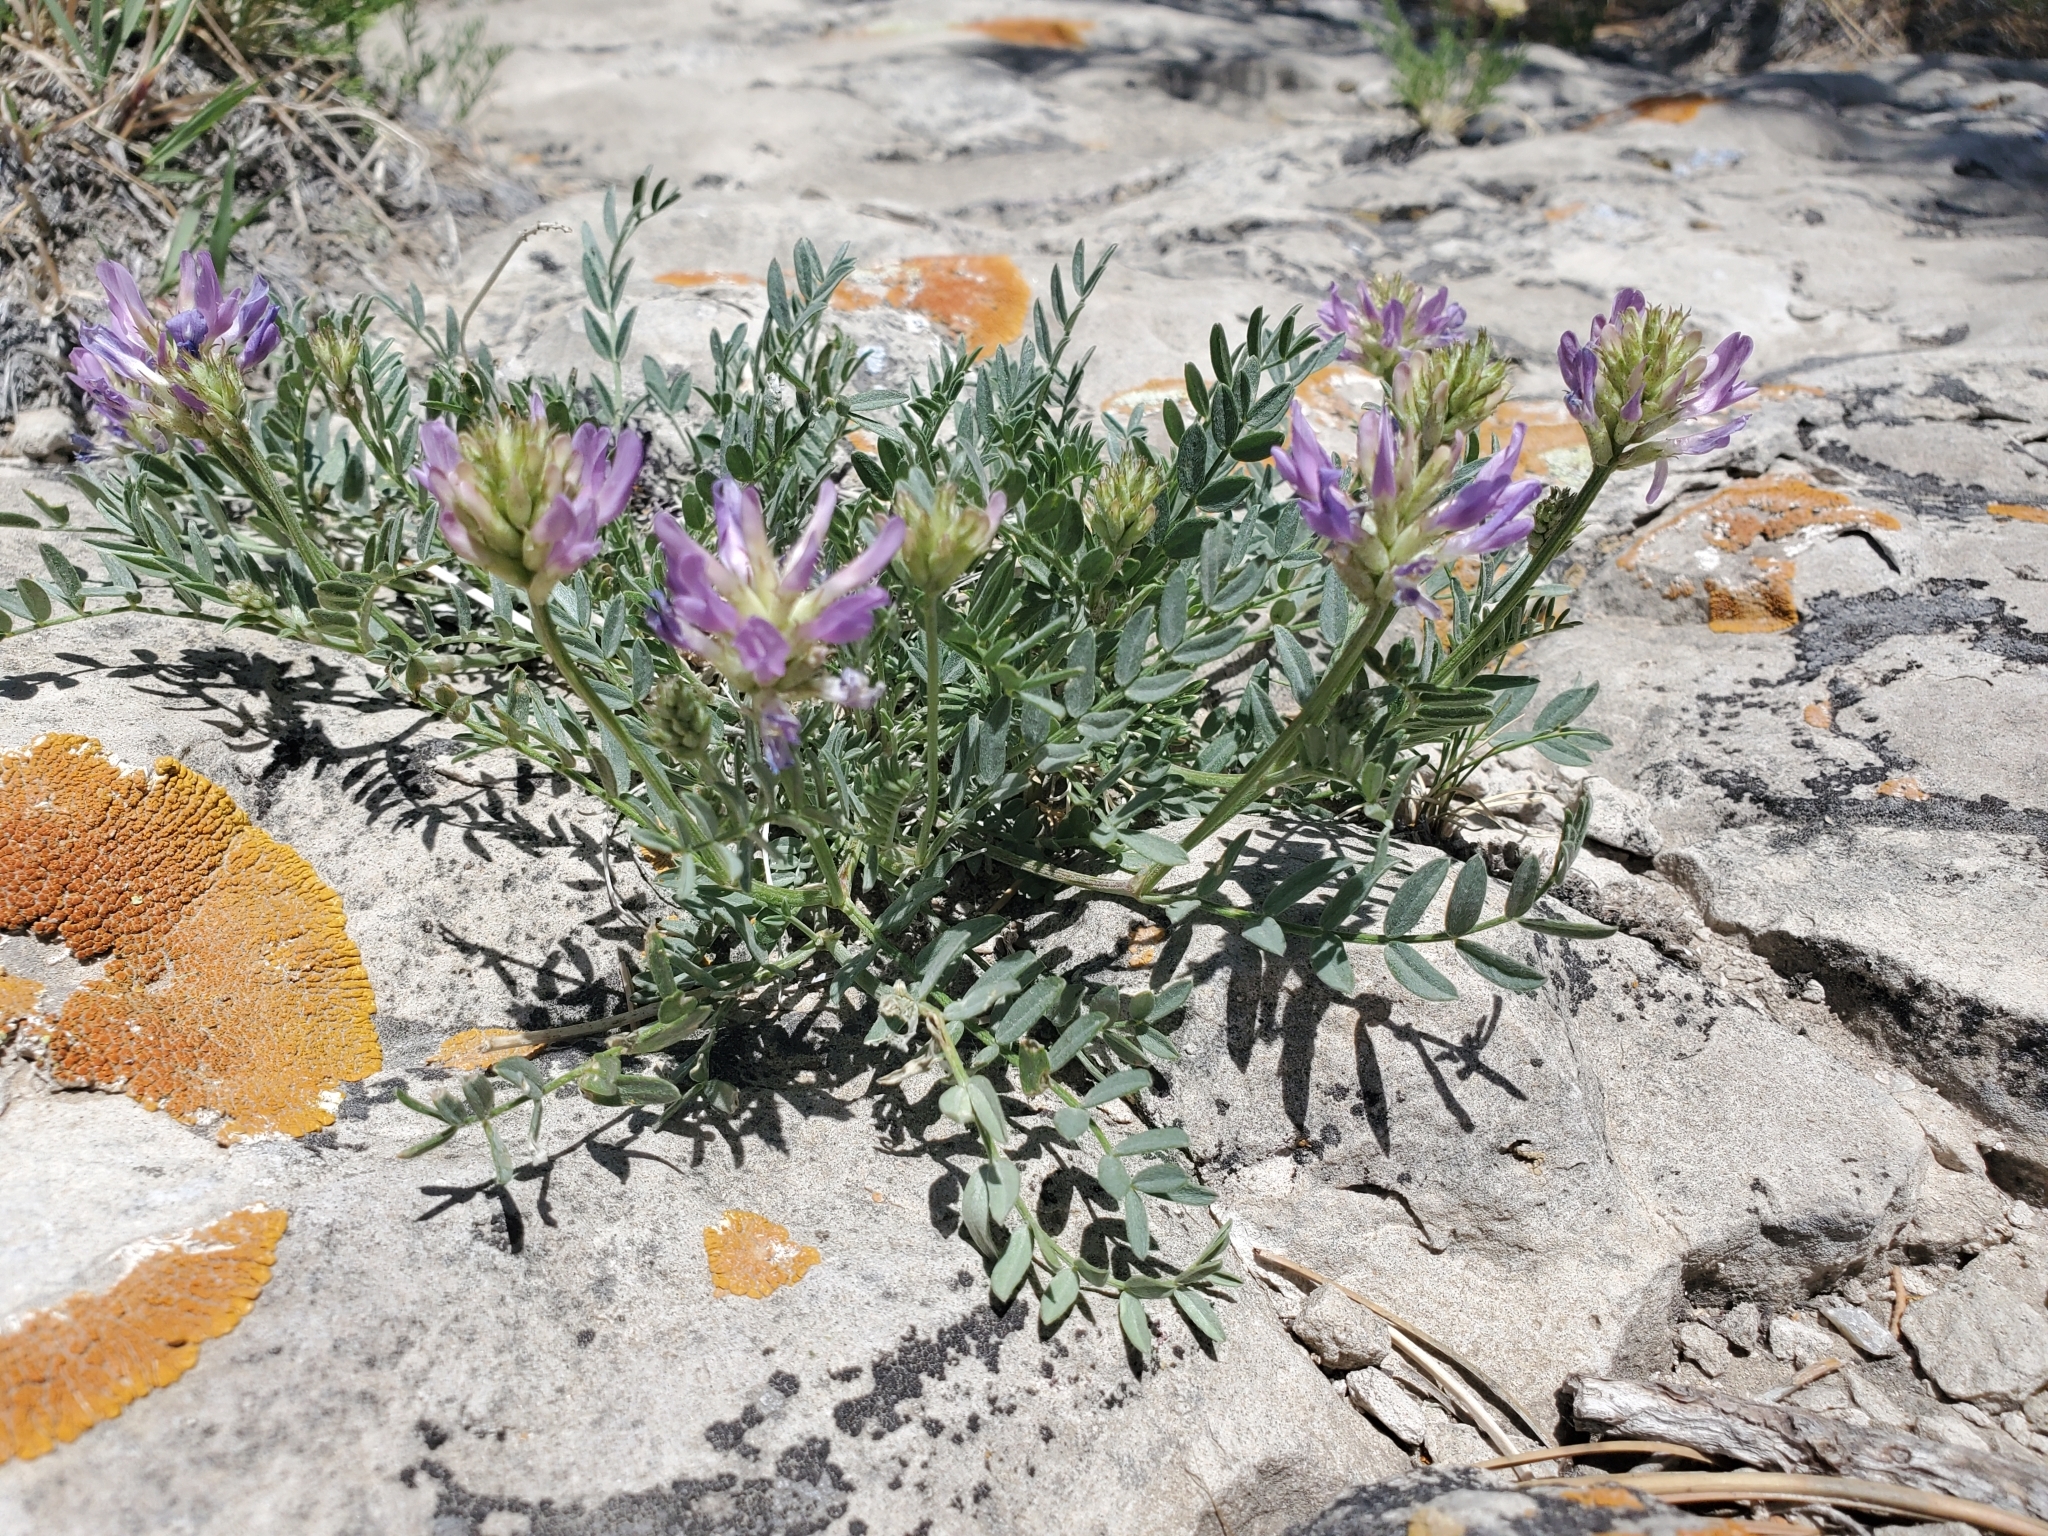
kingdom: Plantae
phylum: Tracheophyta
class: Magnoliopsida
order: Fabales
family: Fabaceae
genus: Astragalus
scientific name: Astragalus laxmannii
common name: Laxmann's milk-vetch
